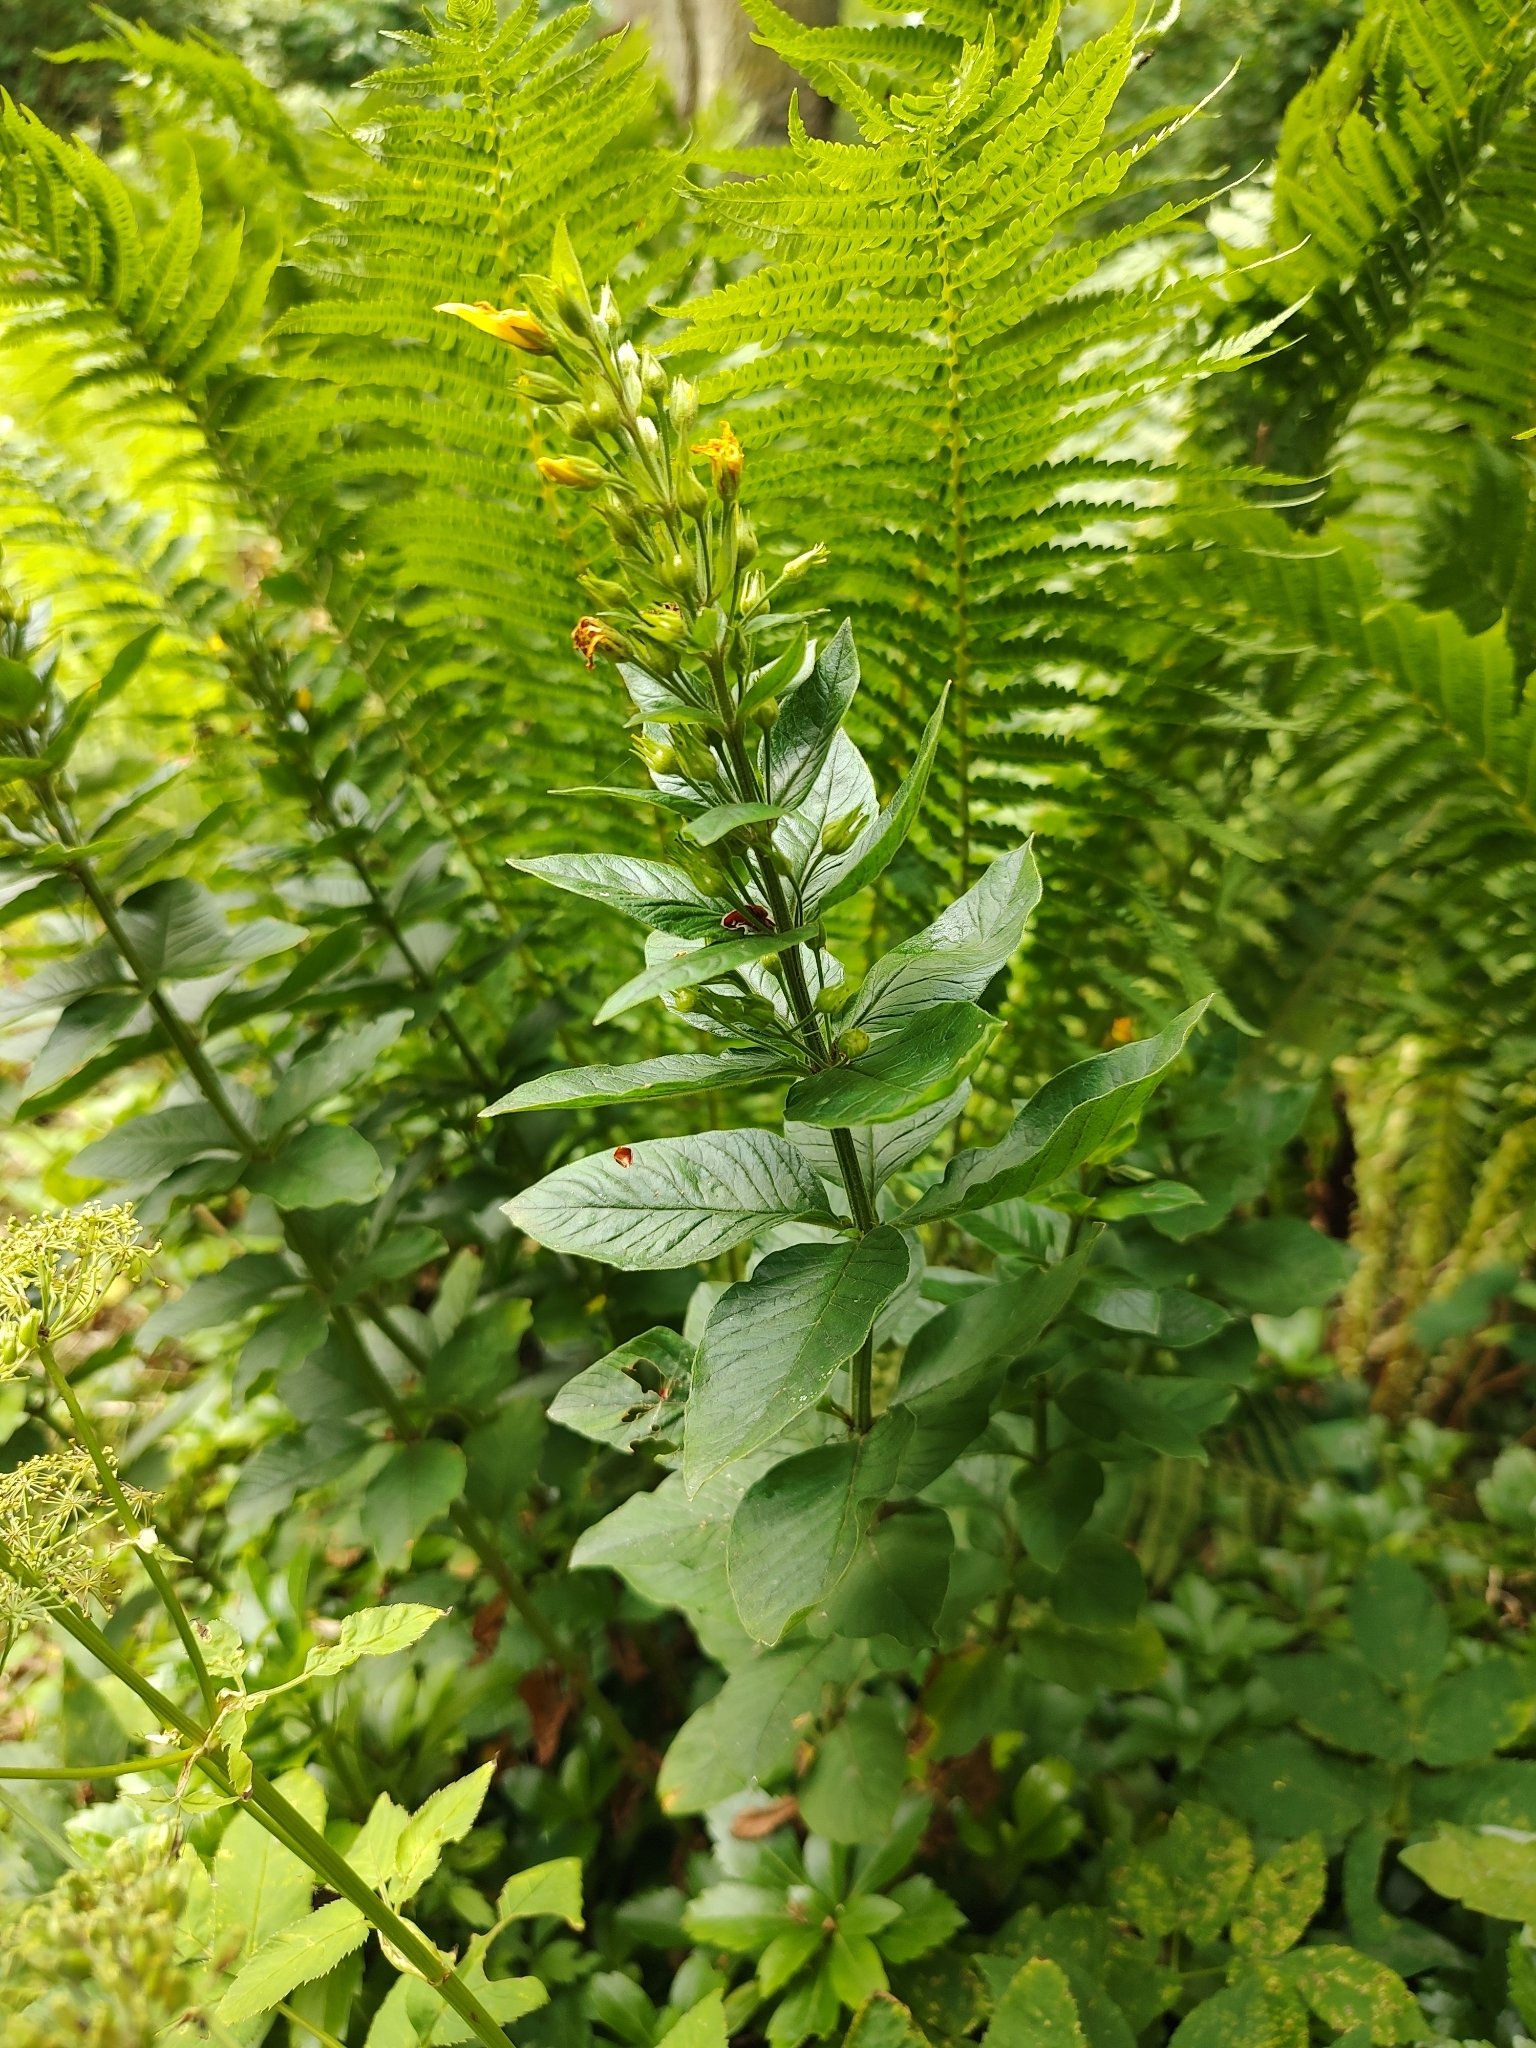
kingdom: Plantae
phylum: Tracheophyta
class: Magnoliopsida
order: Ericales
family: Primulaceae
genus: Lysimachia
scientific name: Lysimachia vulgaris
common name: Yellow loosestrife
